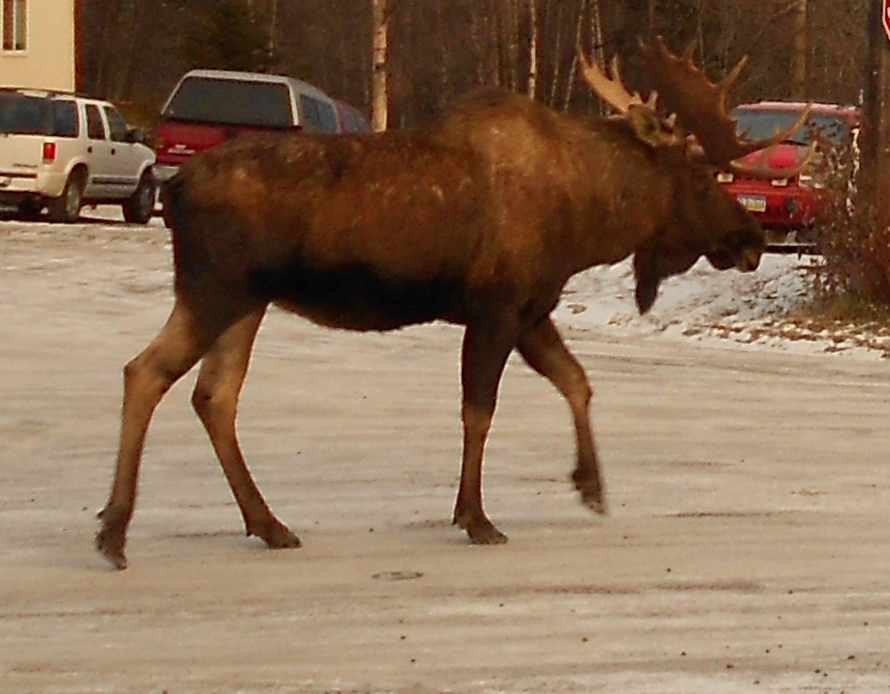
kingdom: Animalia
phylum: Chordata
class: Mammalia
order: Artiodactyla
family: Cervidae
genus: Alces
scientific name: Alces alces
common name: Moose
